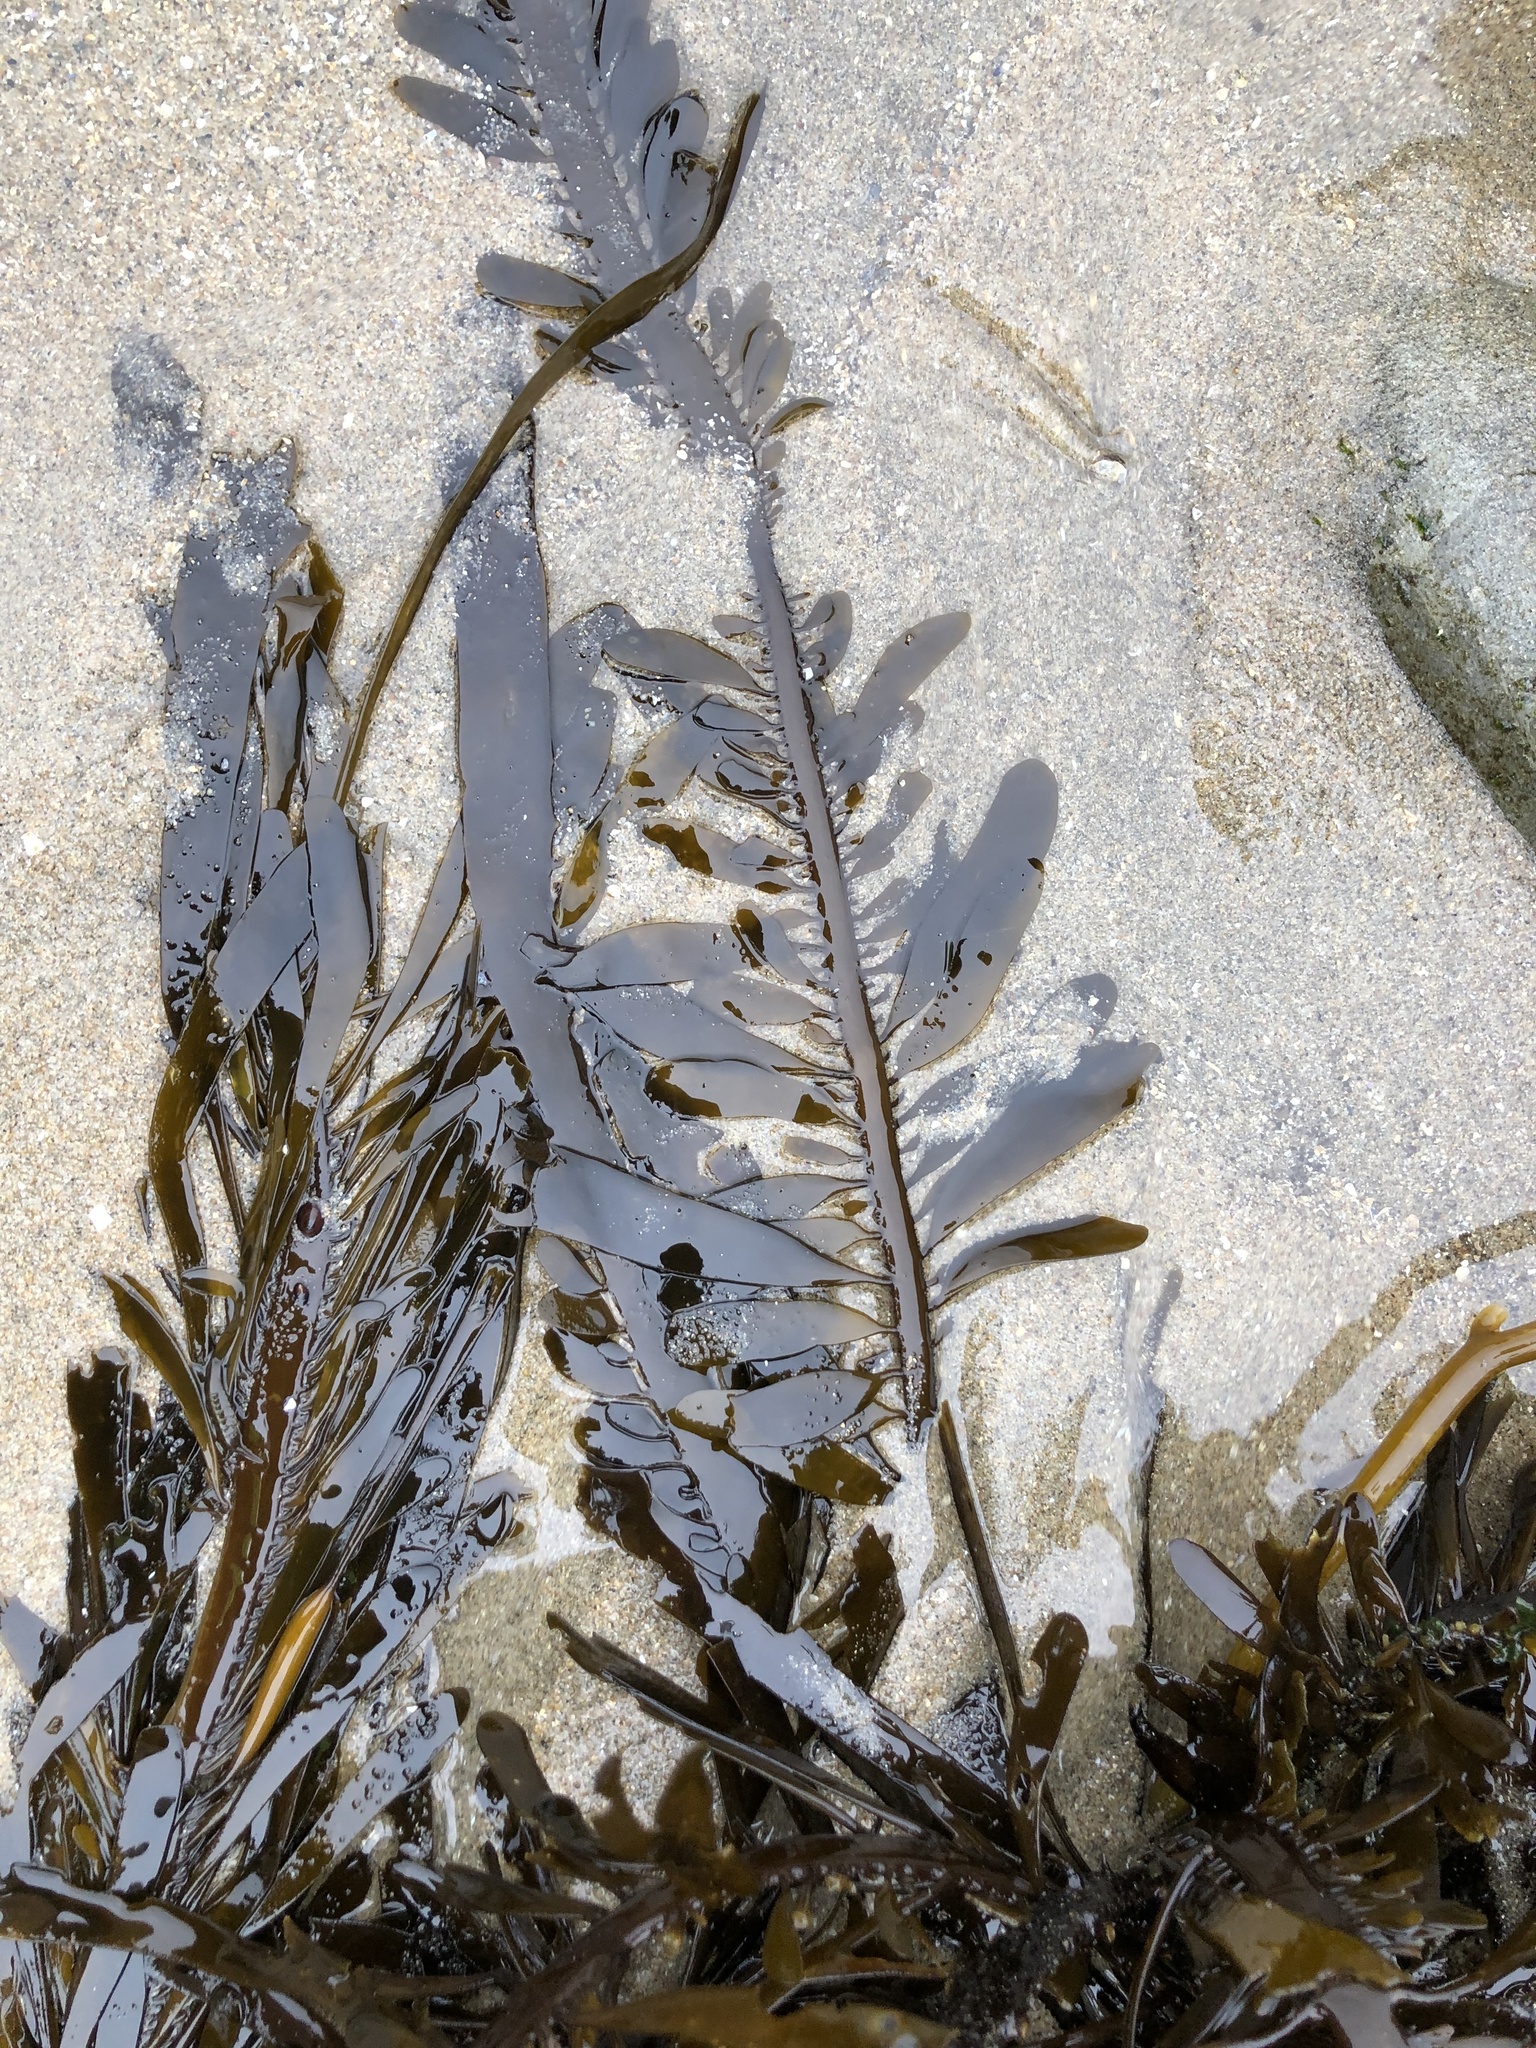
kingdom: Chromista
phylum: Ochrophyta
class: Phaeophyceae
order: Laminariales
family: Lessoniaceae
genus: Egregia
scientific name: Egregia menziesii
